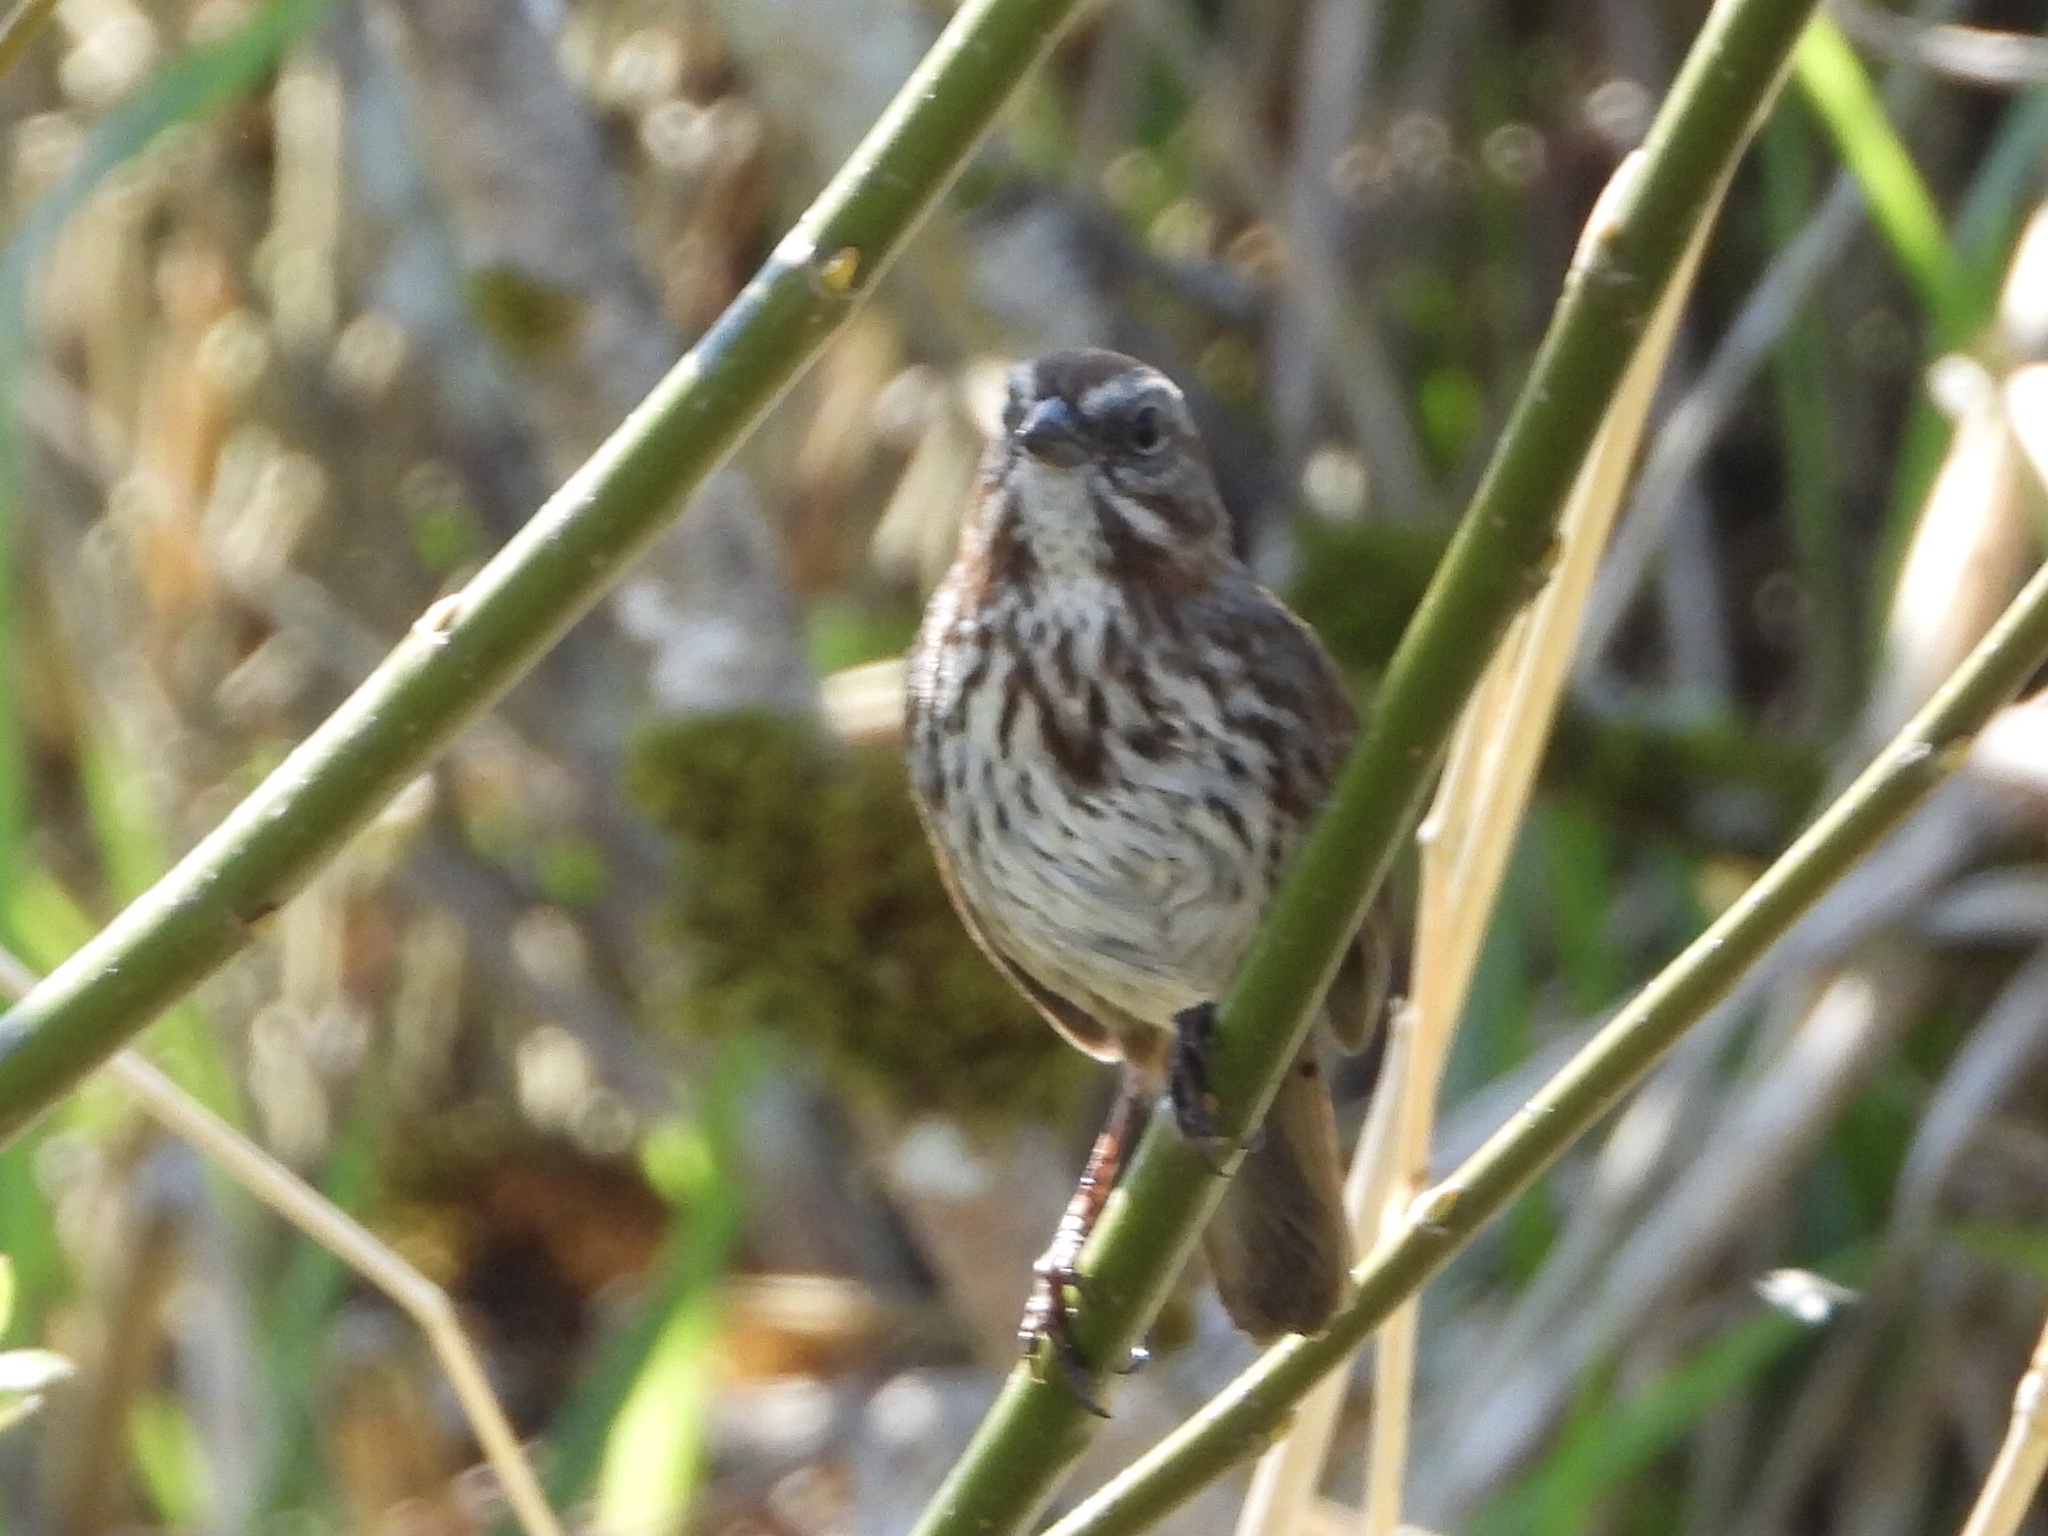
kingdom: Animalia
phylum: Chordata
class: Aves
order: Passeriformes
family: Passerellidae
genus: Melospiza
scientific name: Melospiza melodia
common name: Song sparrow
